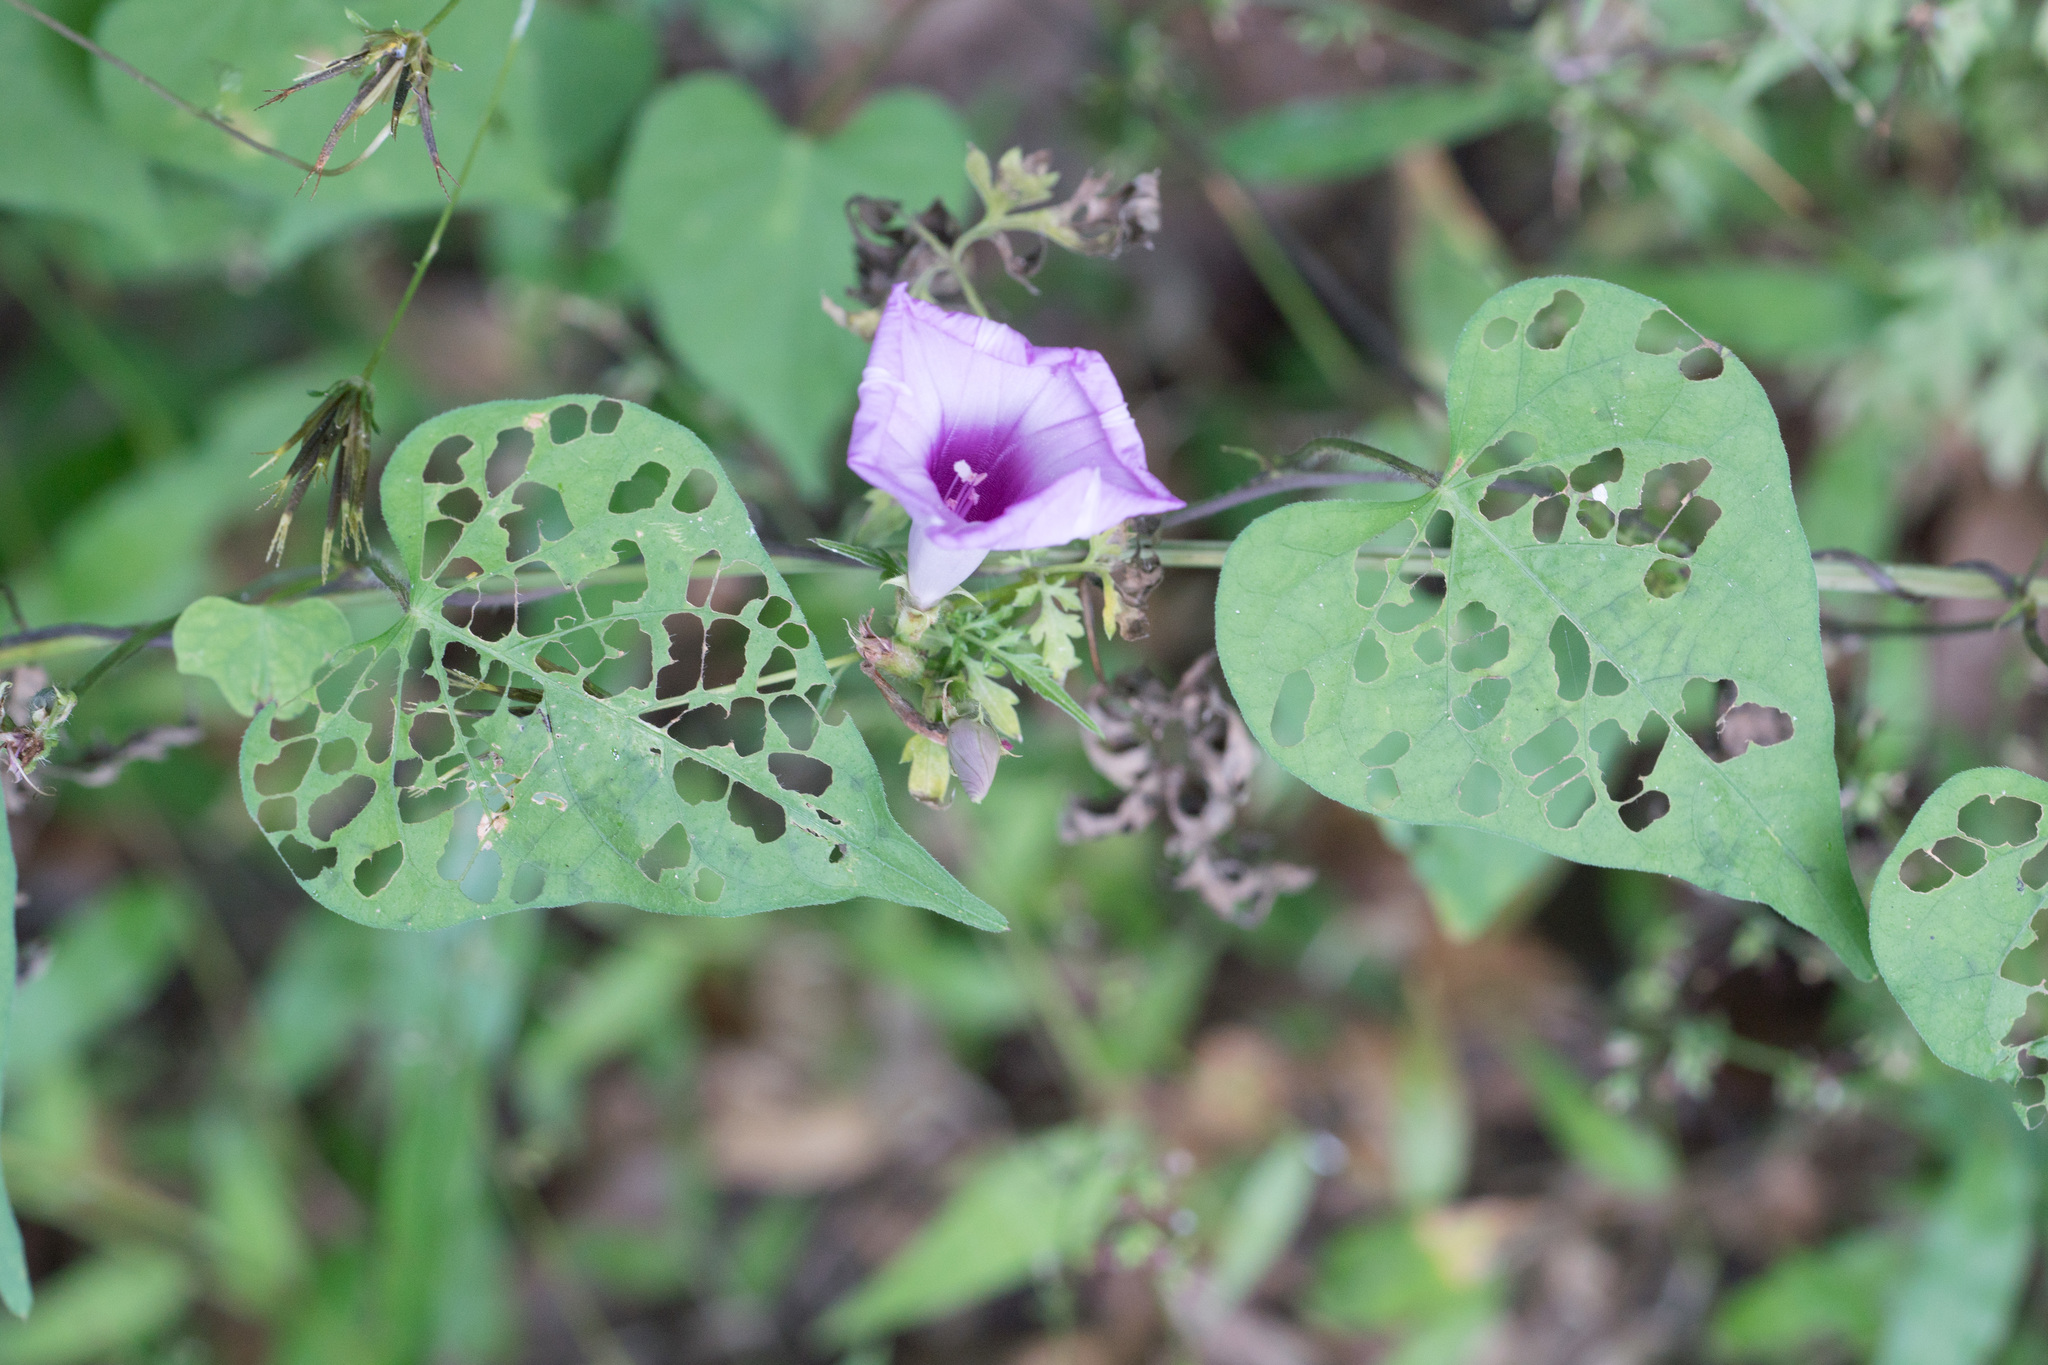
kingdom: Plantae
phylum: Tracheophyta
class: Magnoliopsida
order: Solanales
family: Convolvulaceae
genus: Ipomoea
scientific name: Ipomoea cordatotriloba
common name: Cotton morning glory
